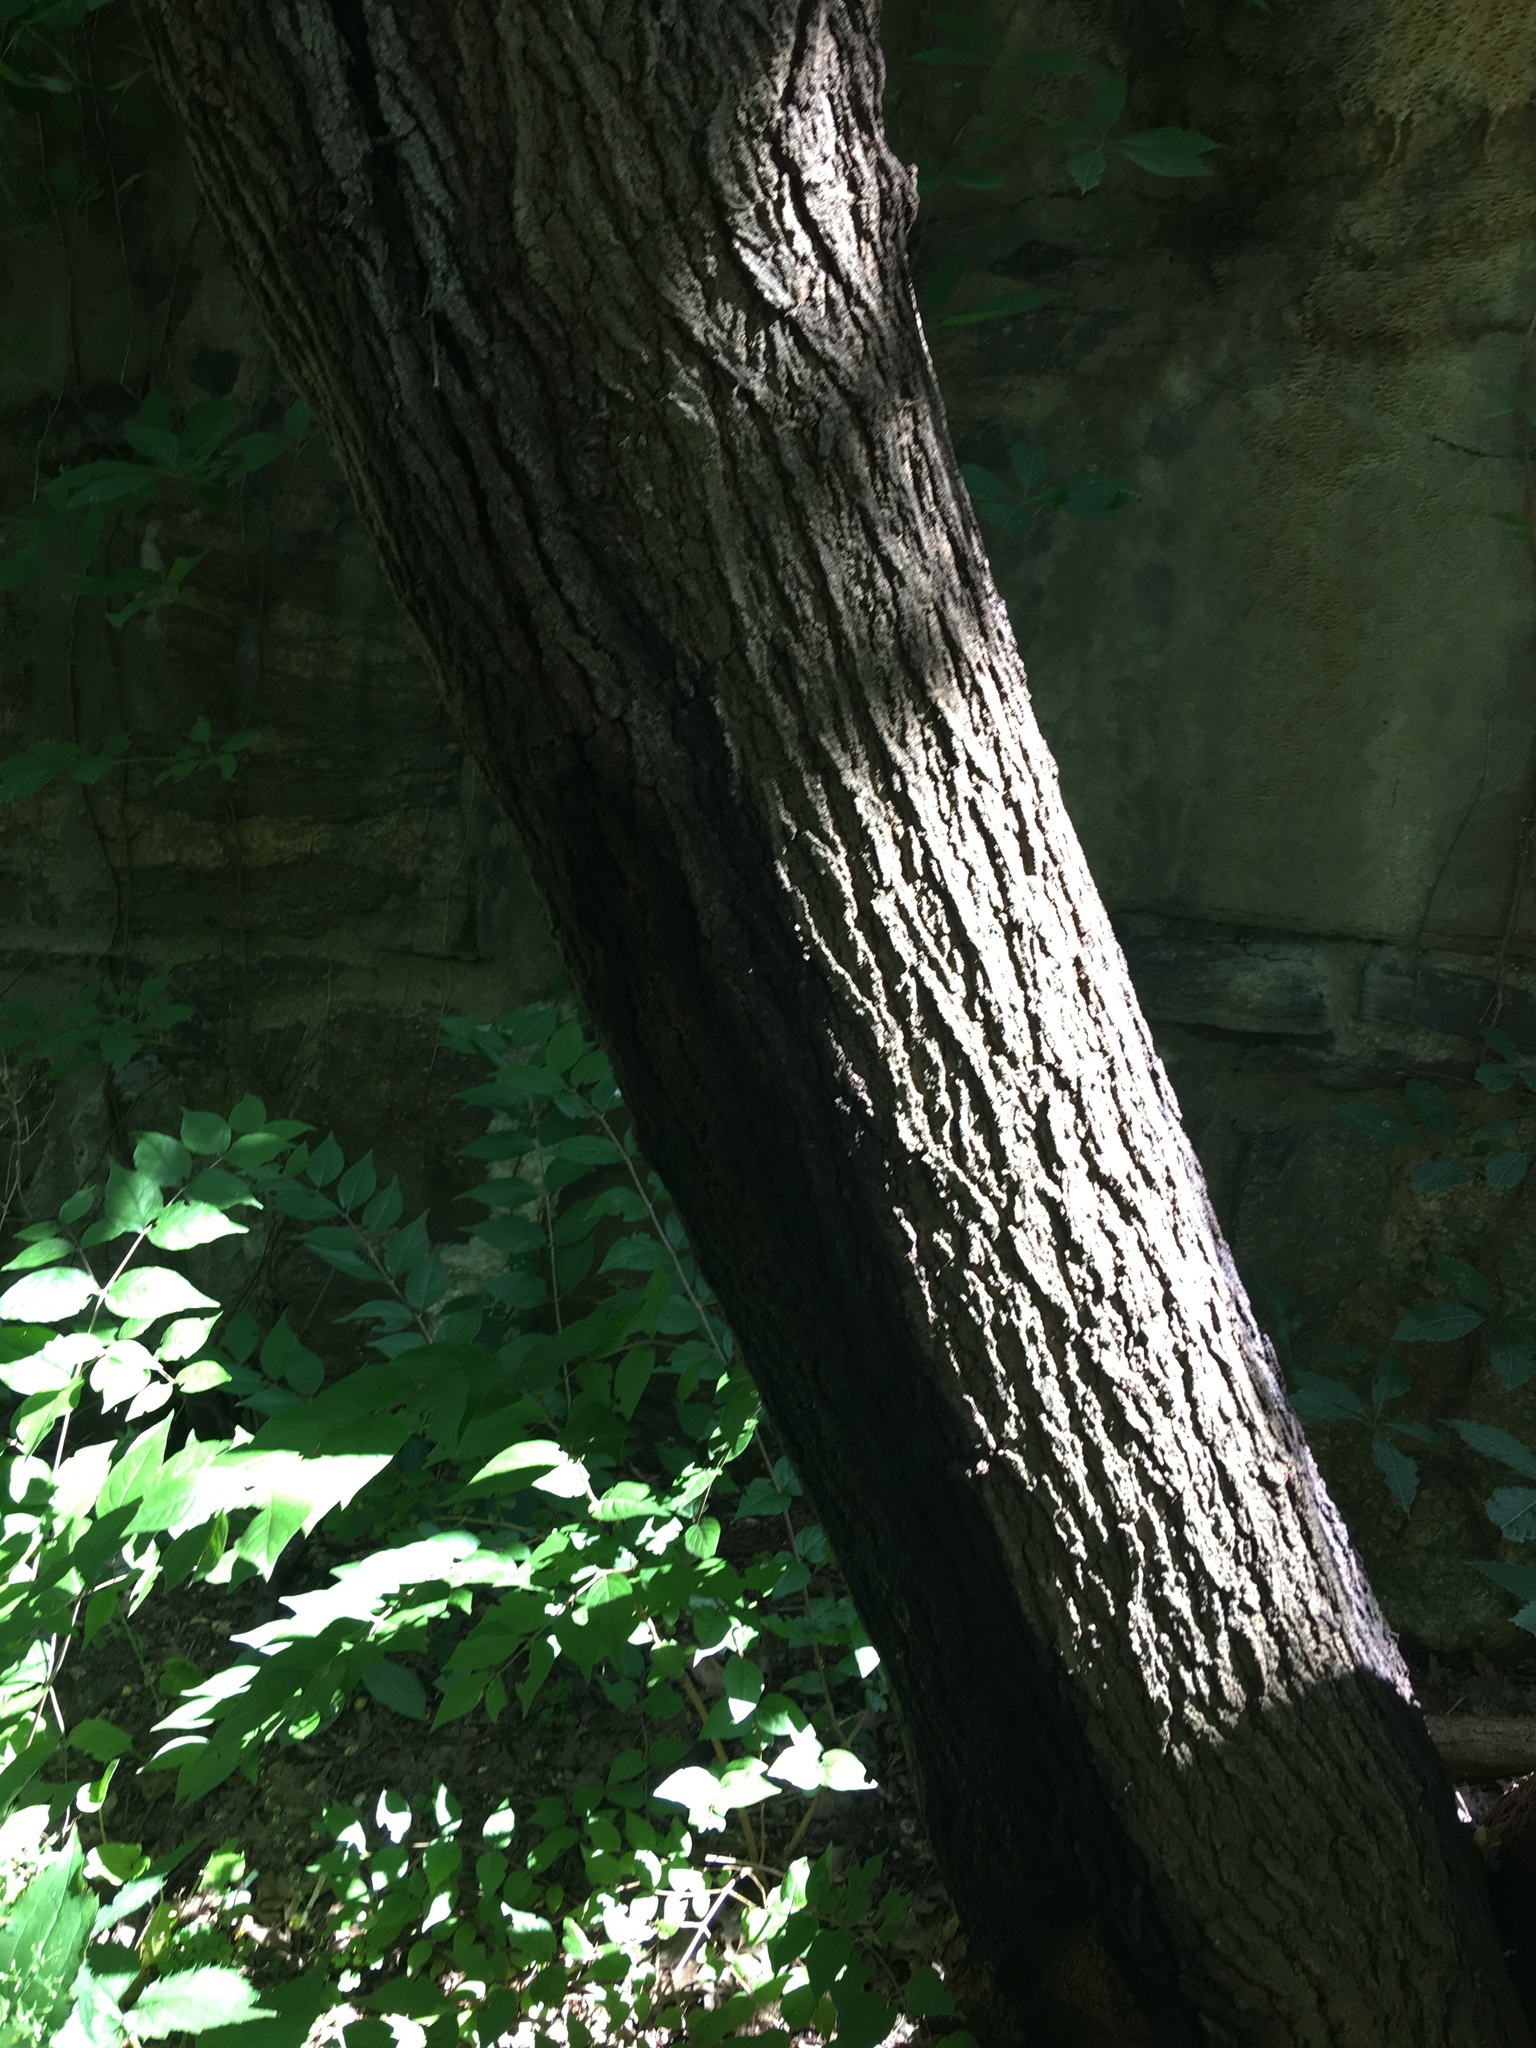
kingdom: Plantae
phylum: Tracheophyta
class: Magnoliopsida
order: Rosales
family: Moraceae
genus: Morus
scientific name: Morus alba
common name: White mulberry
